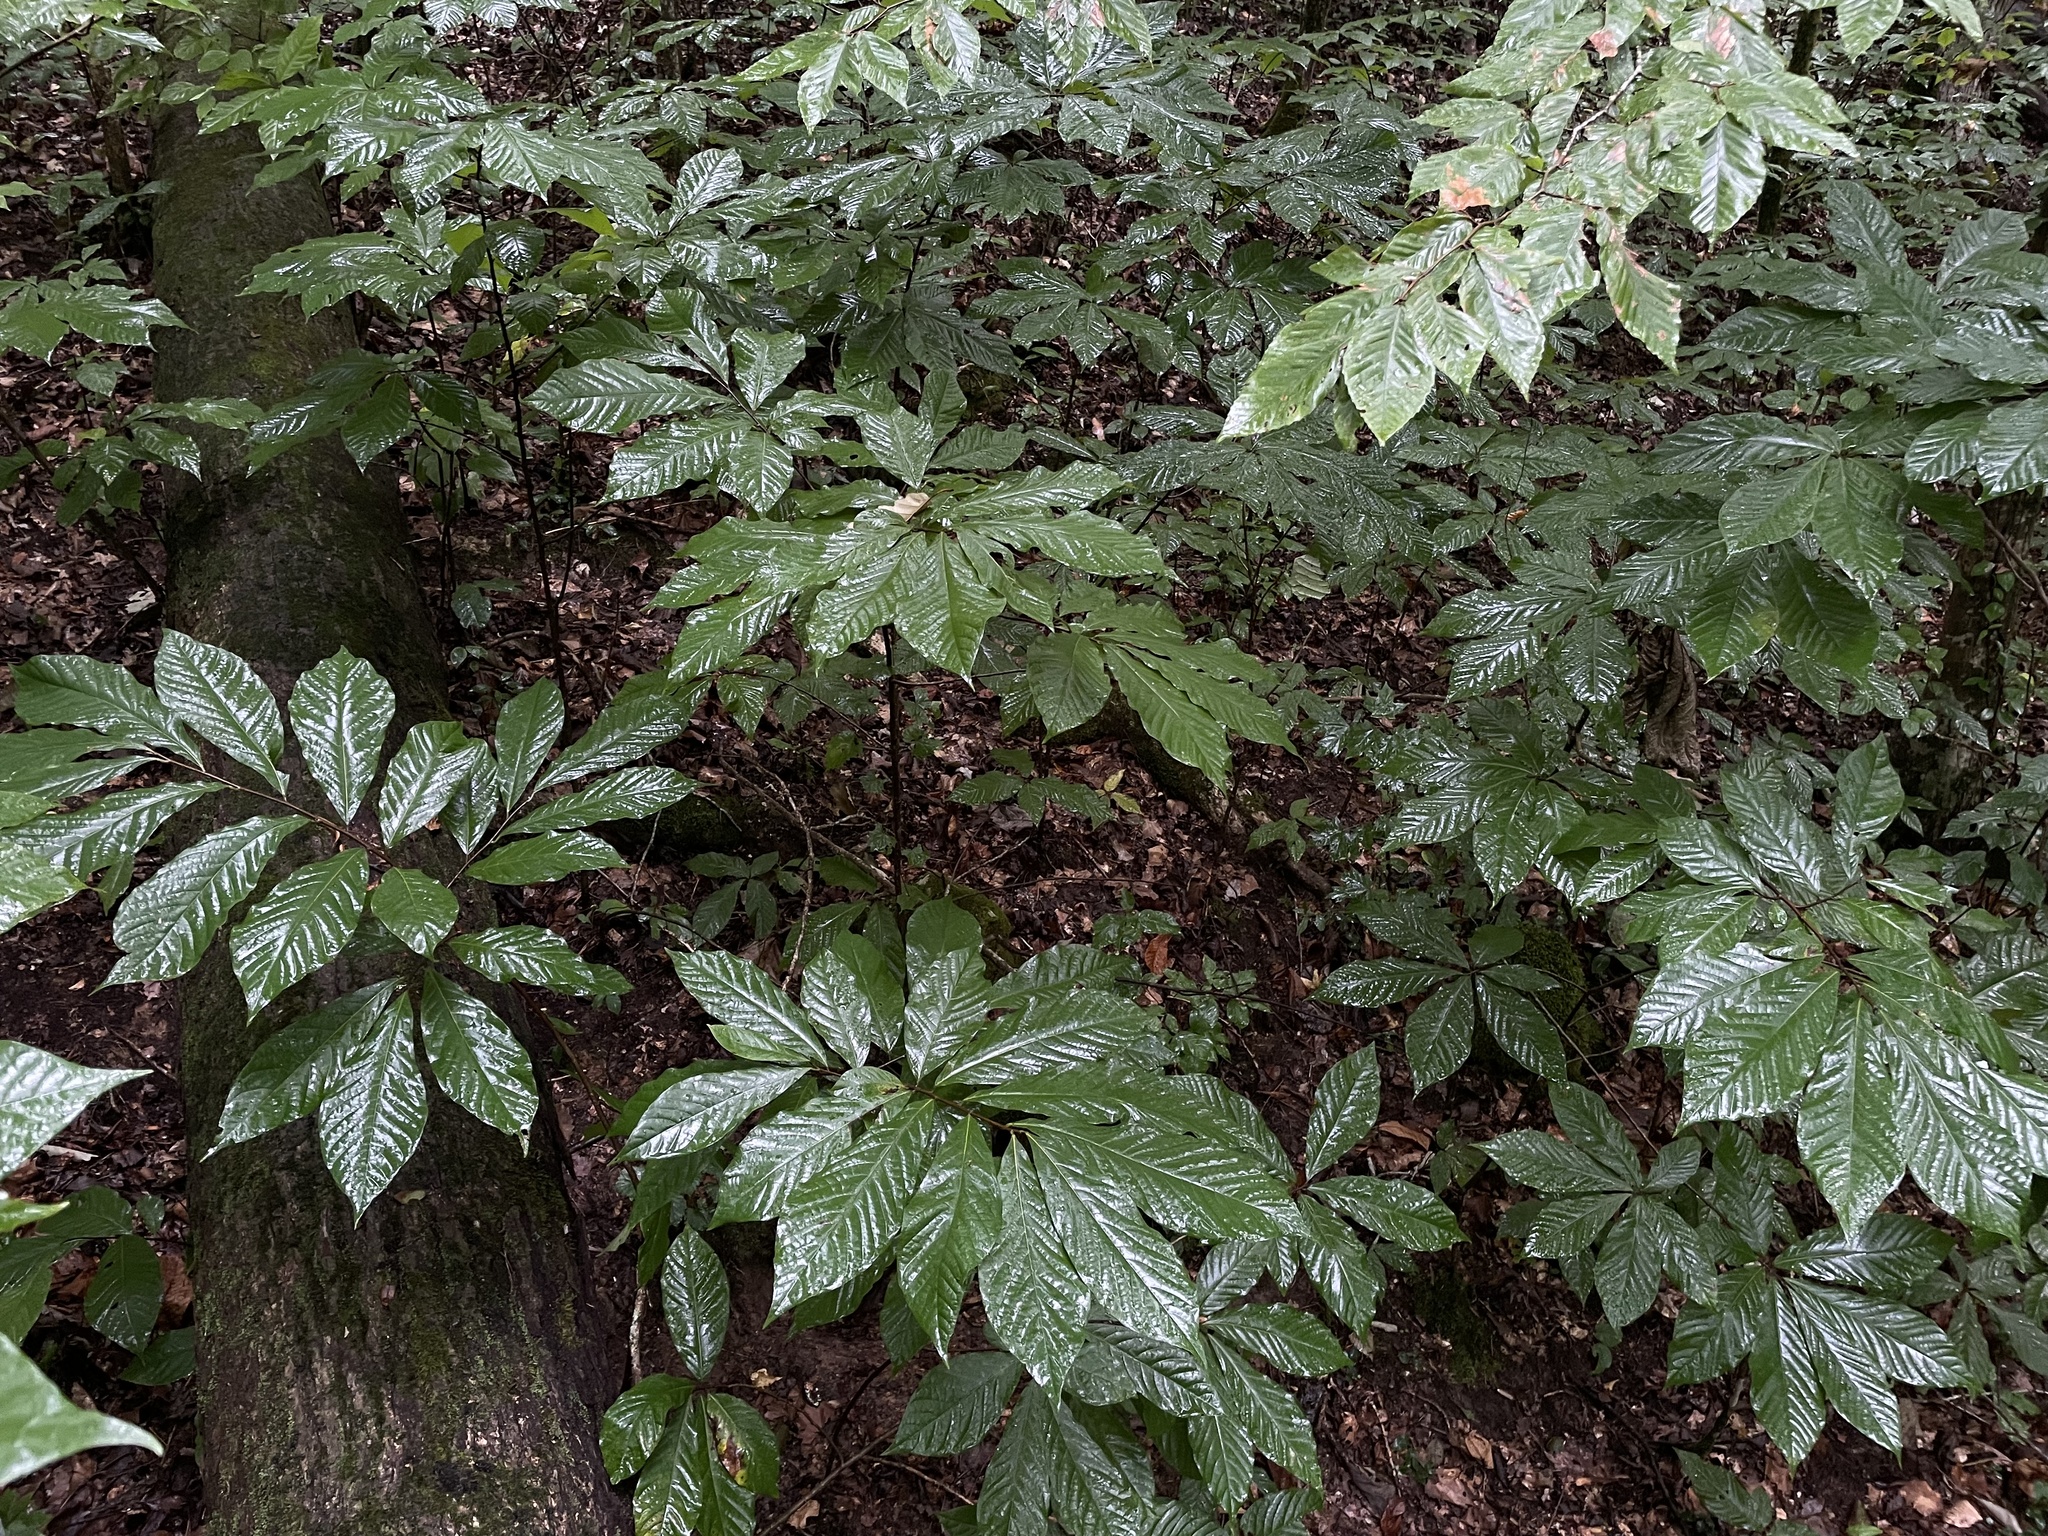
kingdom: Plantae
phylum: Tracheophyta
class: Magnoliopsida
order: Magnoliales
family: Annonaceae
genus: Asimina
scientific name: Asimina triloba
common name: Dog-banana
